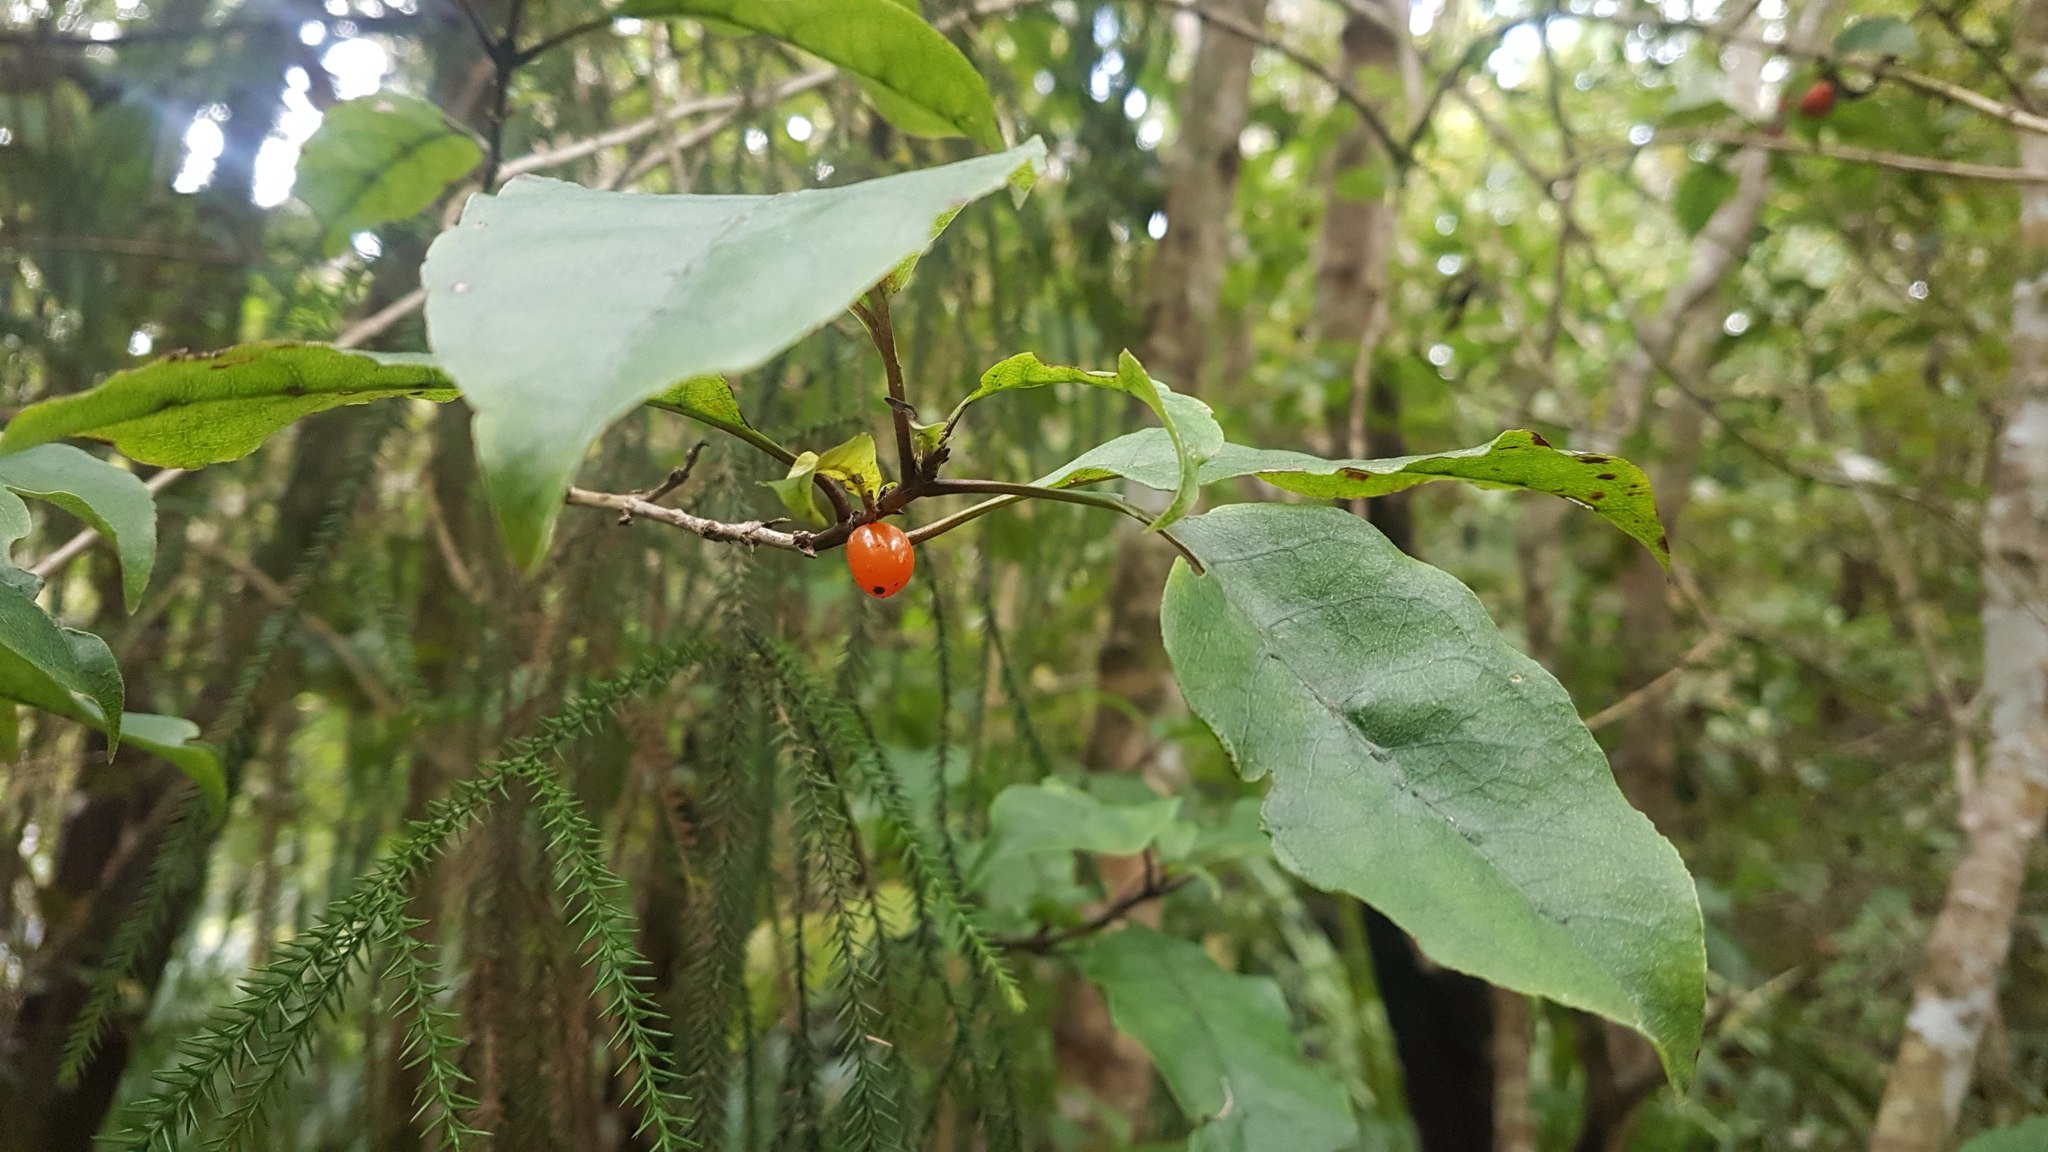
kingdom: Plantae
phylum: Tracheophyta
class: Magnoliopsida
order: Gentianales
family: Rubiaceae
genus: Coprosma
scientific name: Coprosma autumnalis
